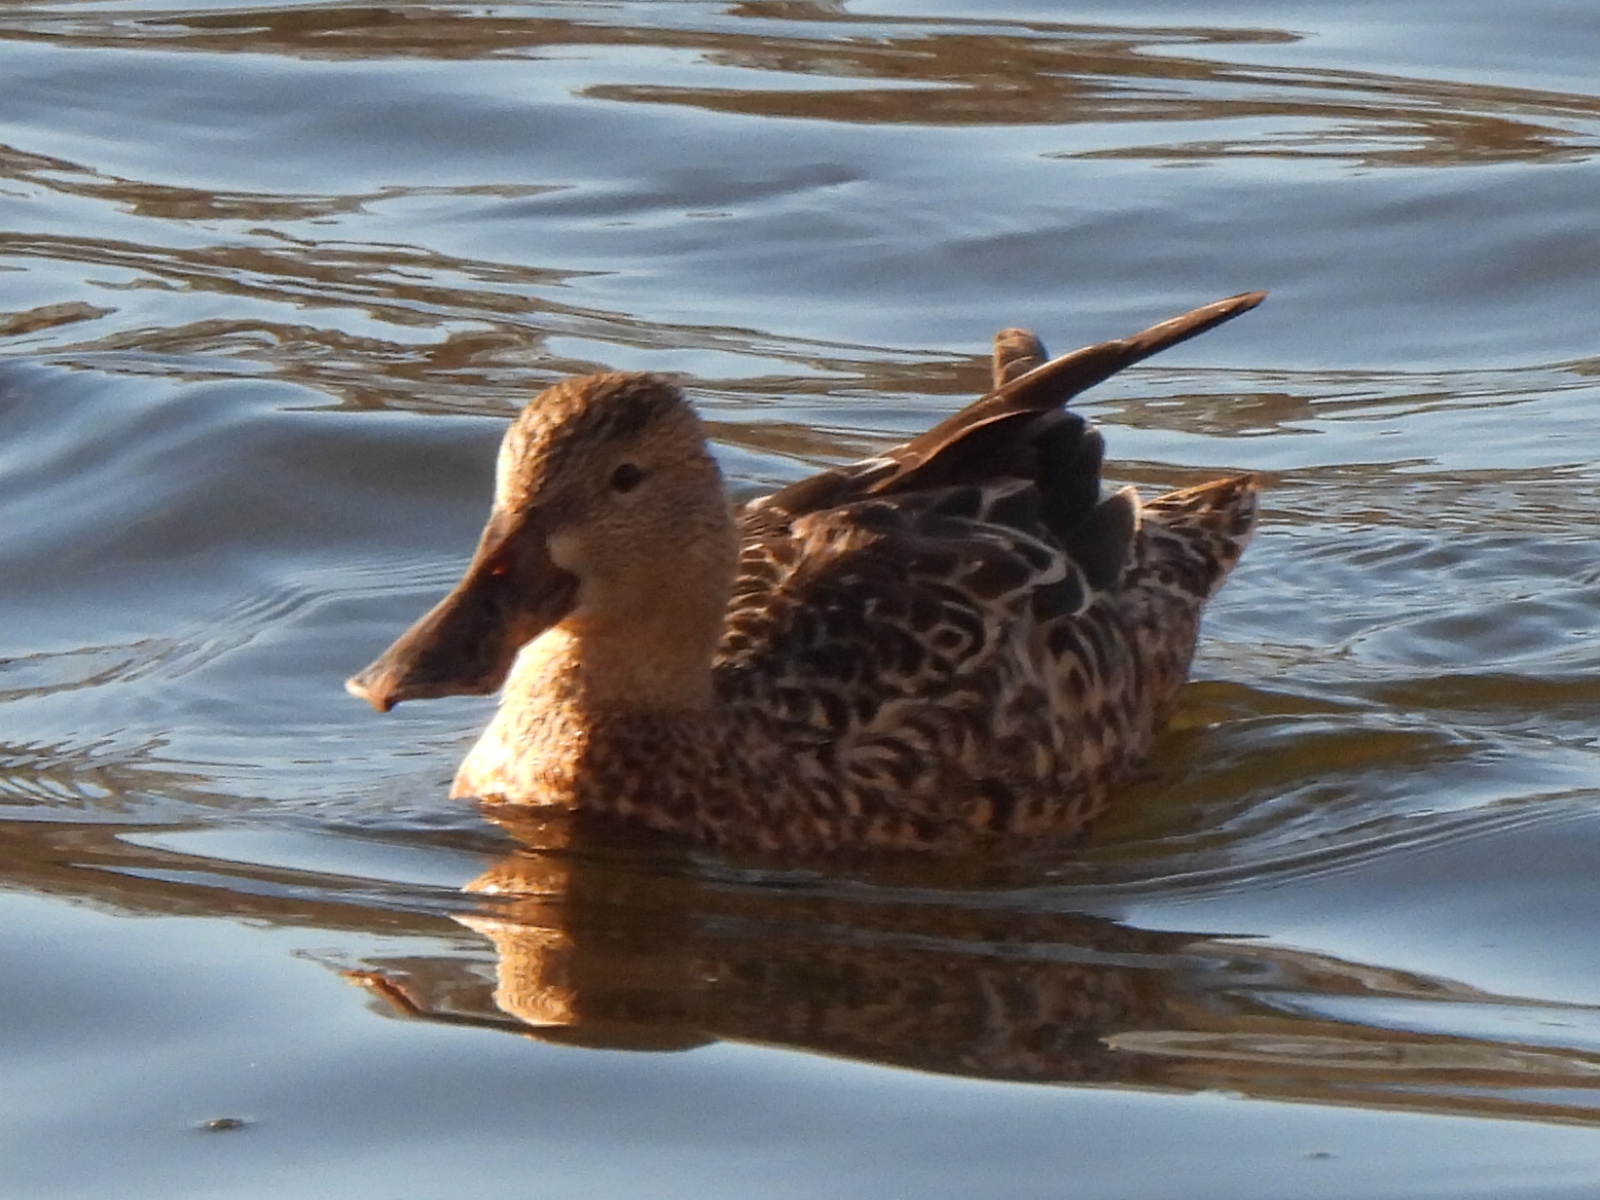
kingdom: Animalia
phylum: Chordata
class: Aves
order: Anseriformes
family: Anatidae
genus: Spatula
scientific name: Spatula clypeata
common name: Northern shoveler
